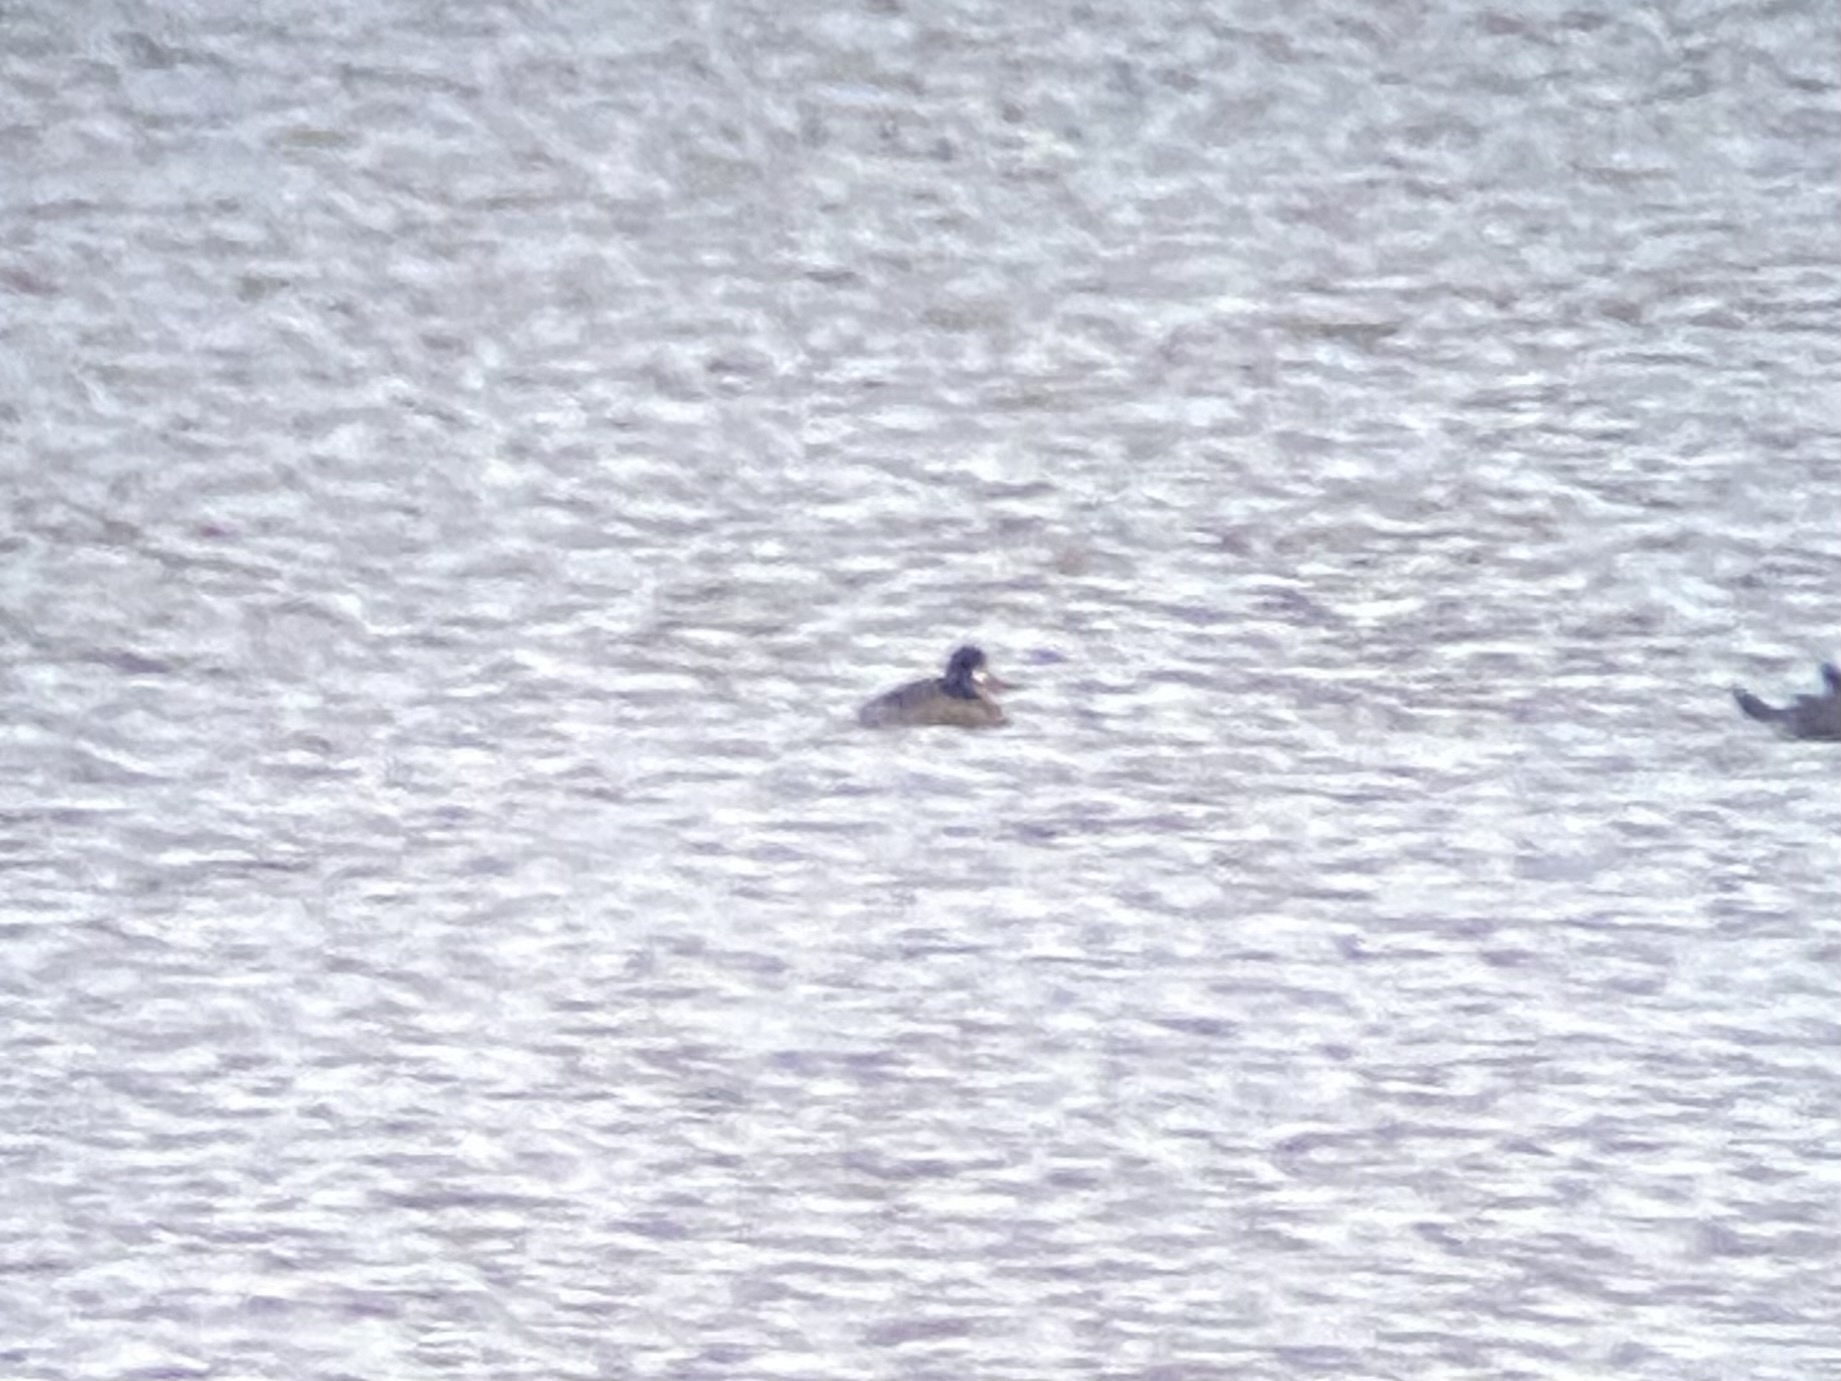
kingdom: Animalia
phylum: Chordata
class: Aves
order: Anseriformes
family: Anatidae
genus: Aythya
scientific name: Aythya affinis
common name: Lesser scaup
